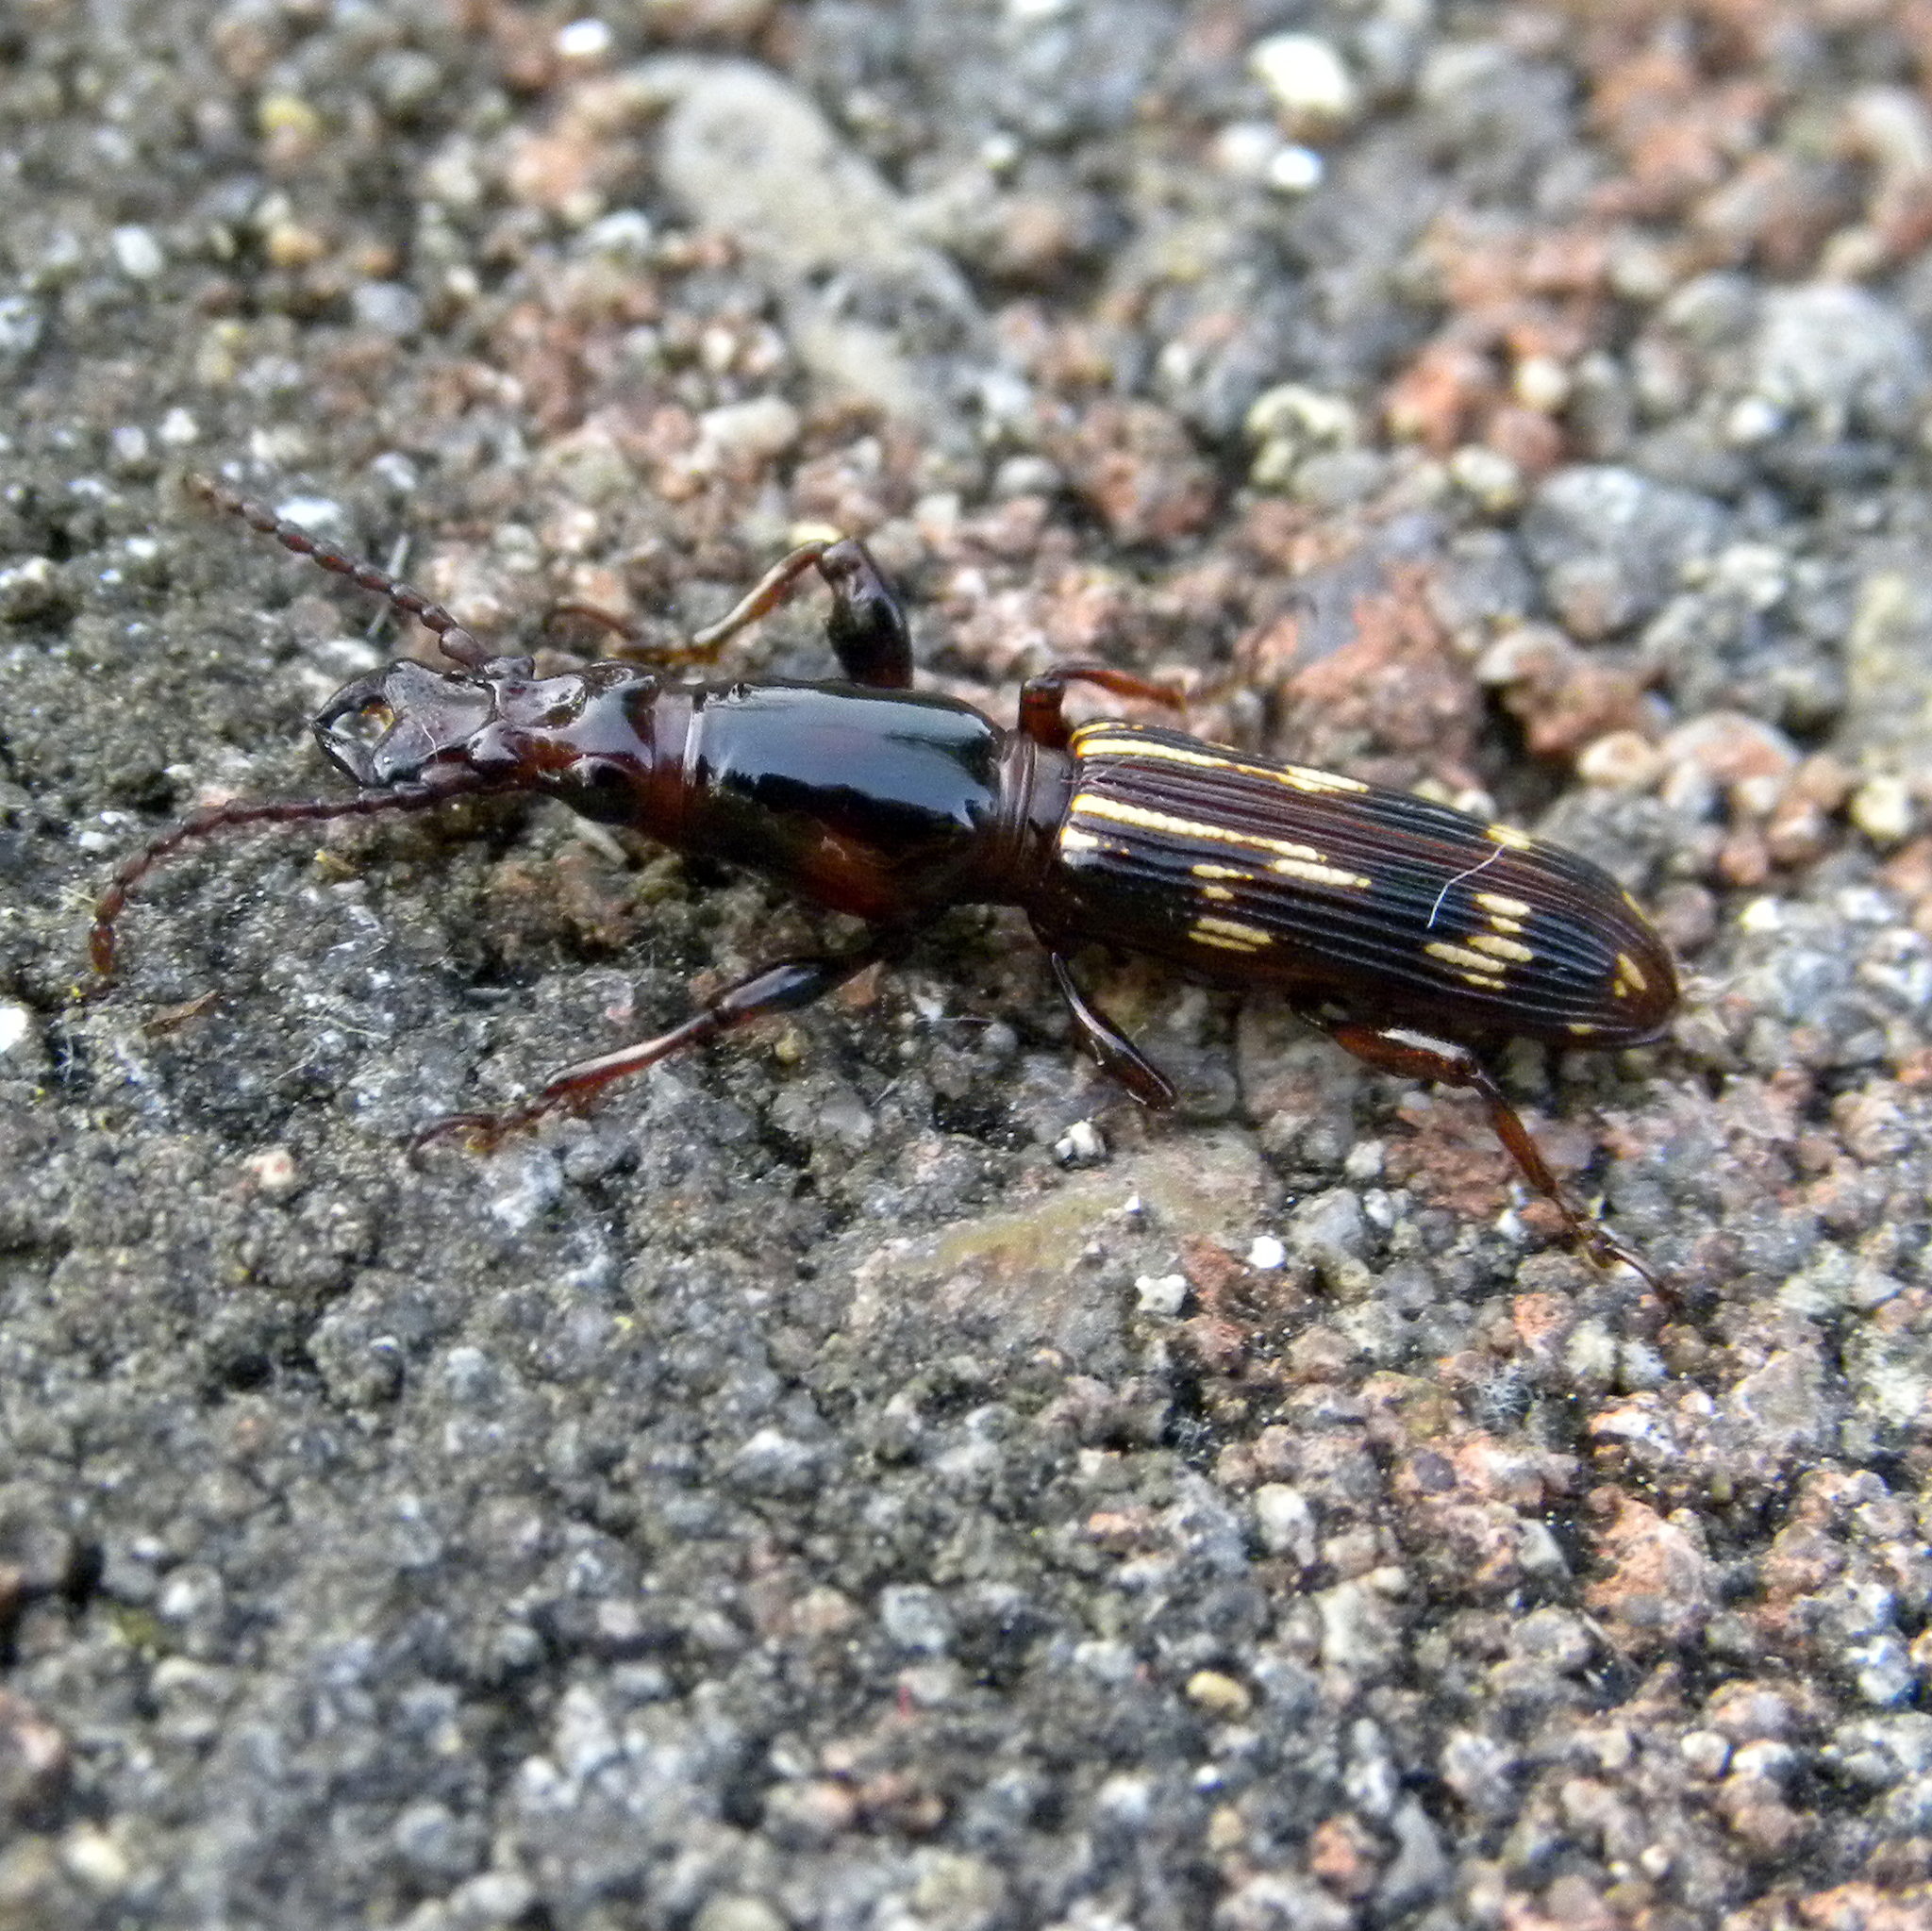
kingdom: Animalia
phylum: Arthropoda
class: Insecta
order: Coleoptera
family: Brentidae
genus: Arrenodes
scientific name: Arrenodes minutus
